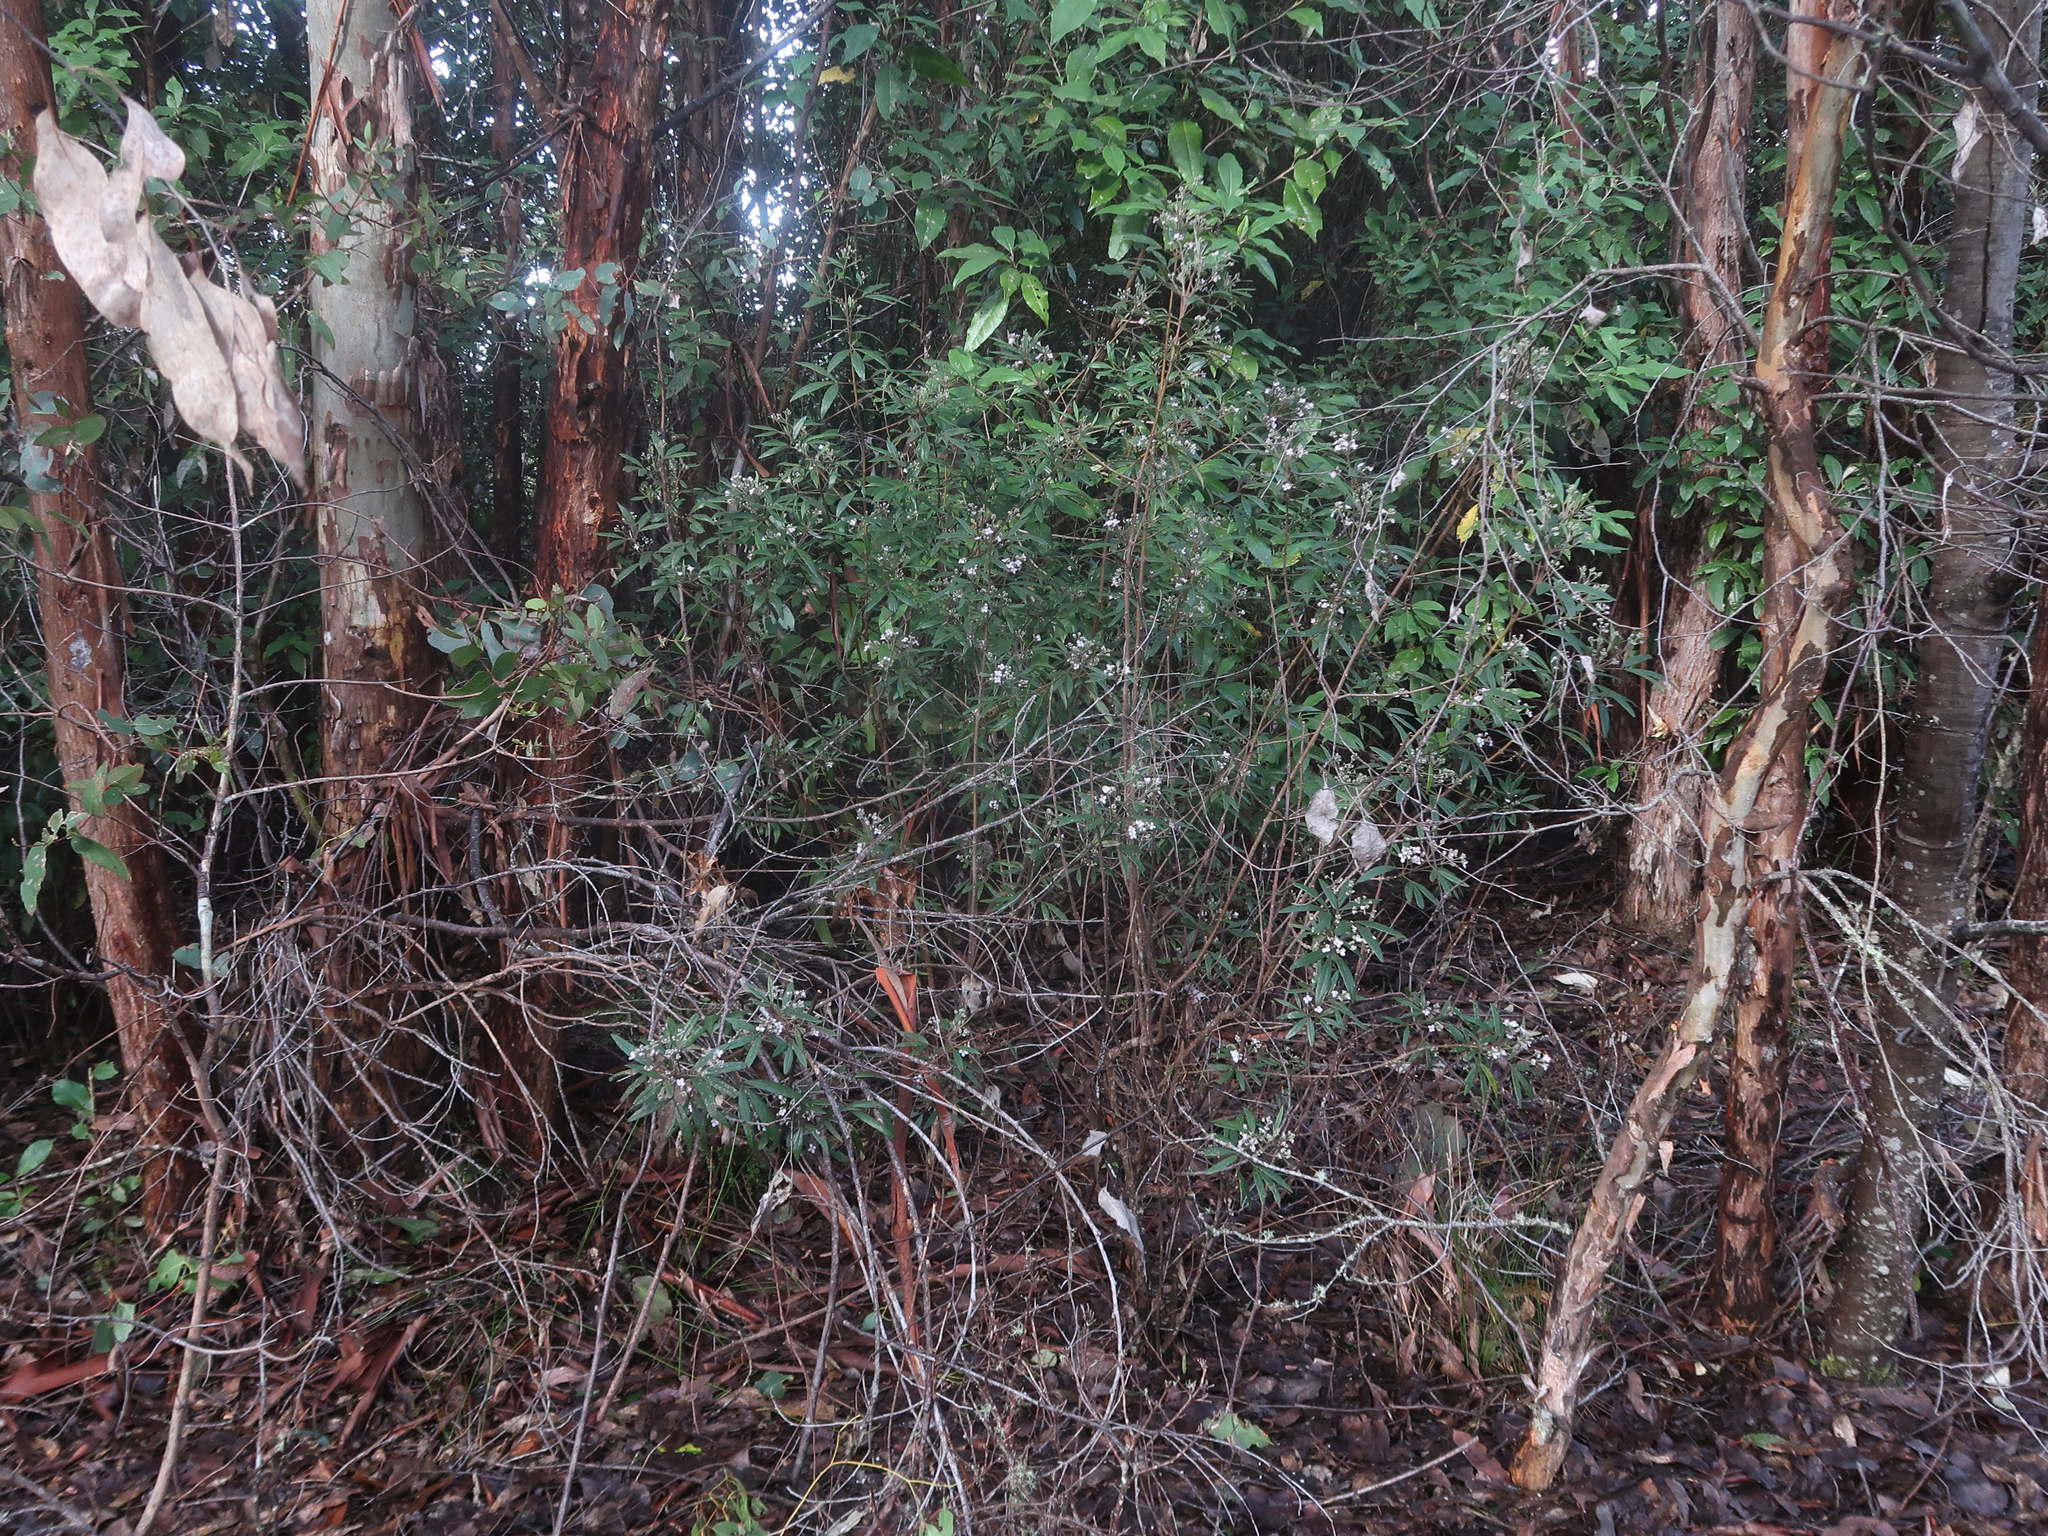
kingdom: Plantae
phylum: Tracheophyta
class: Magnoliopsida
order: Sapindales
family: Rutaceae
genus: Zieria
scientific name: Zieria arborescens
